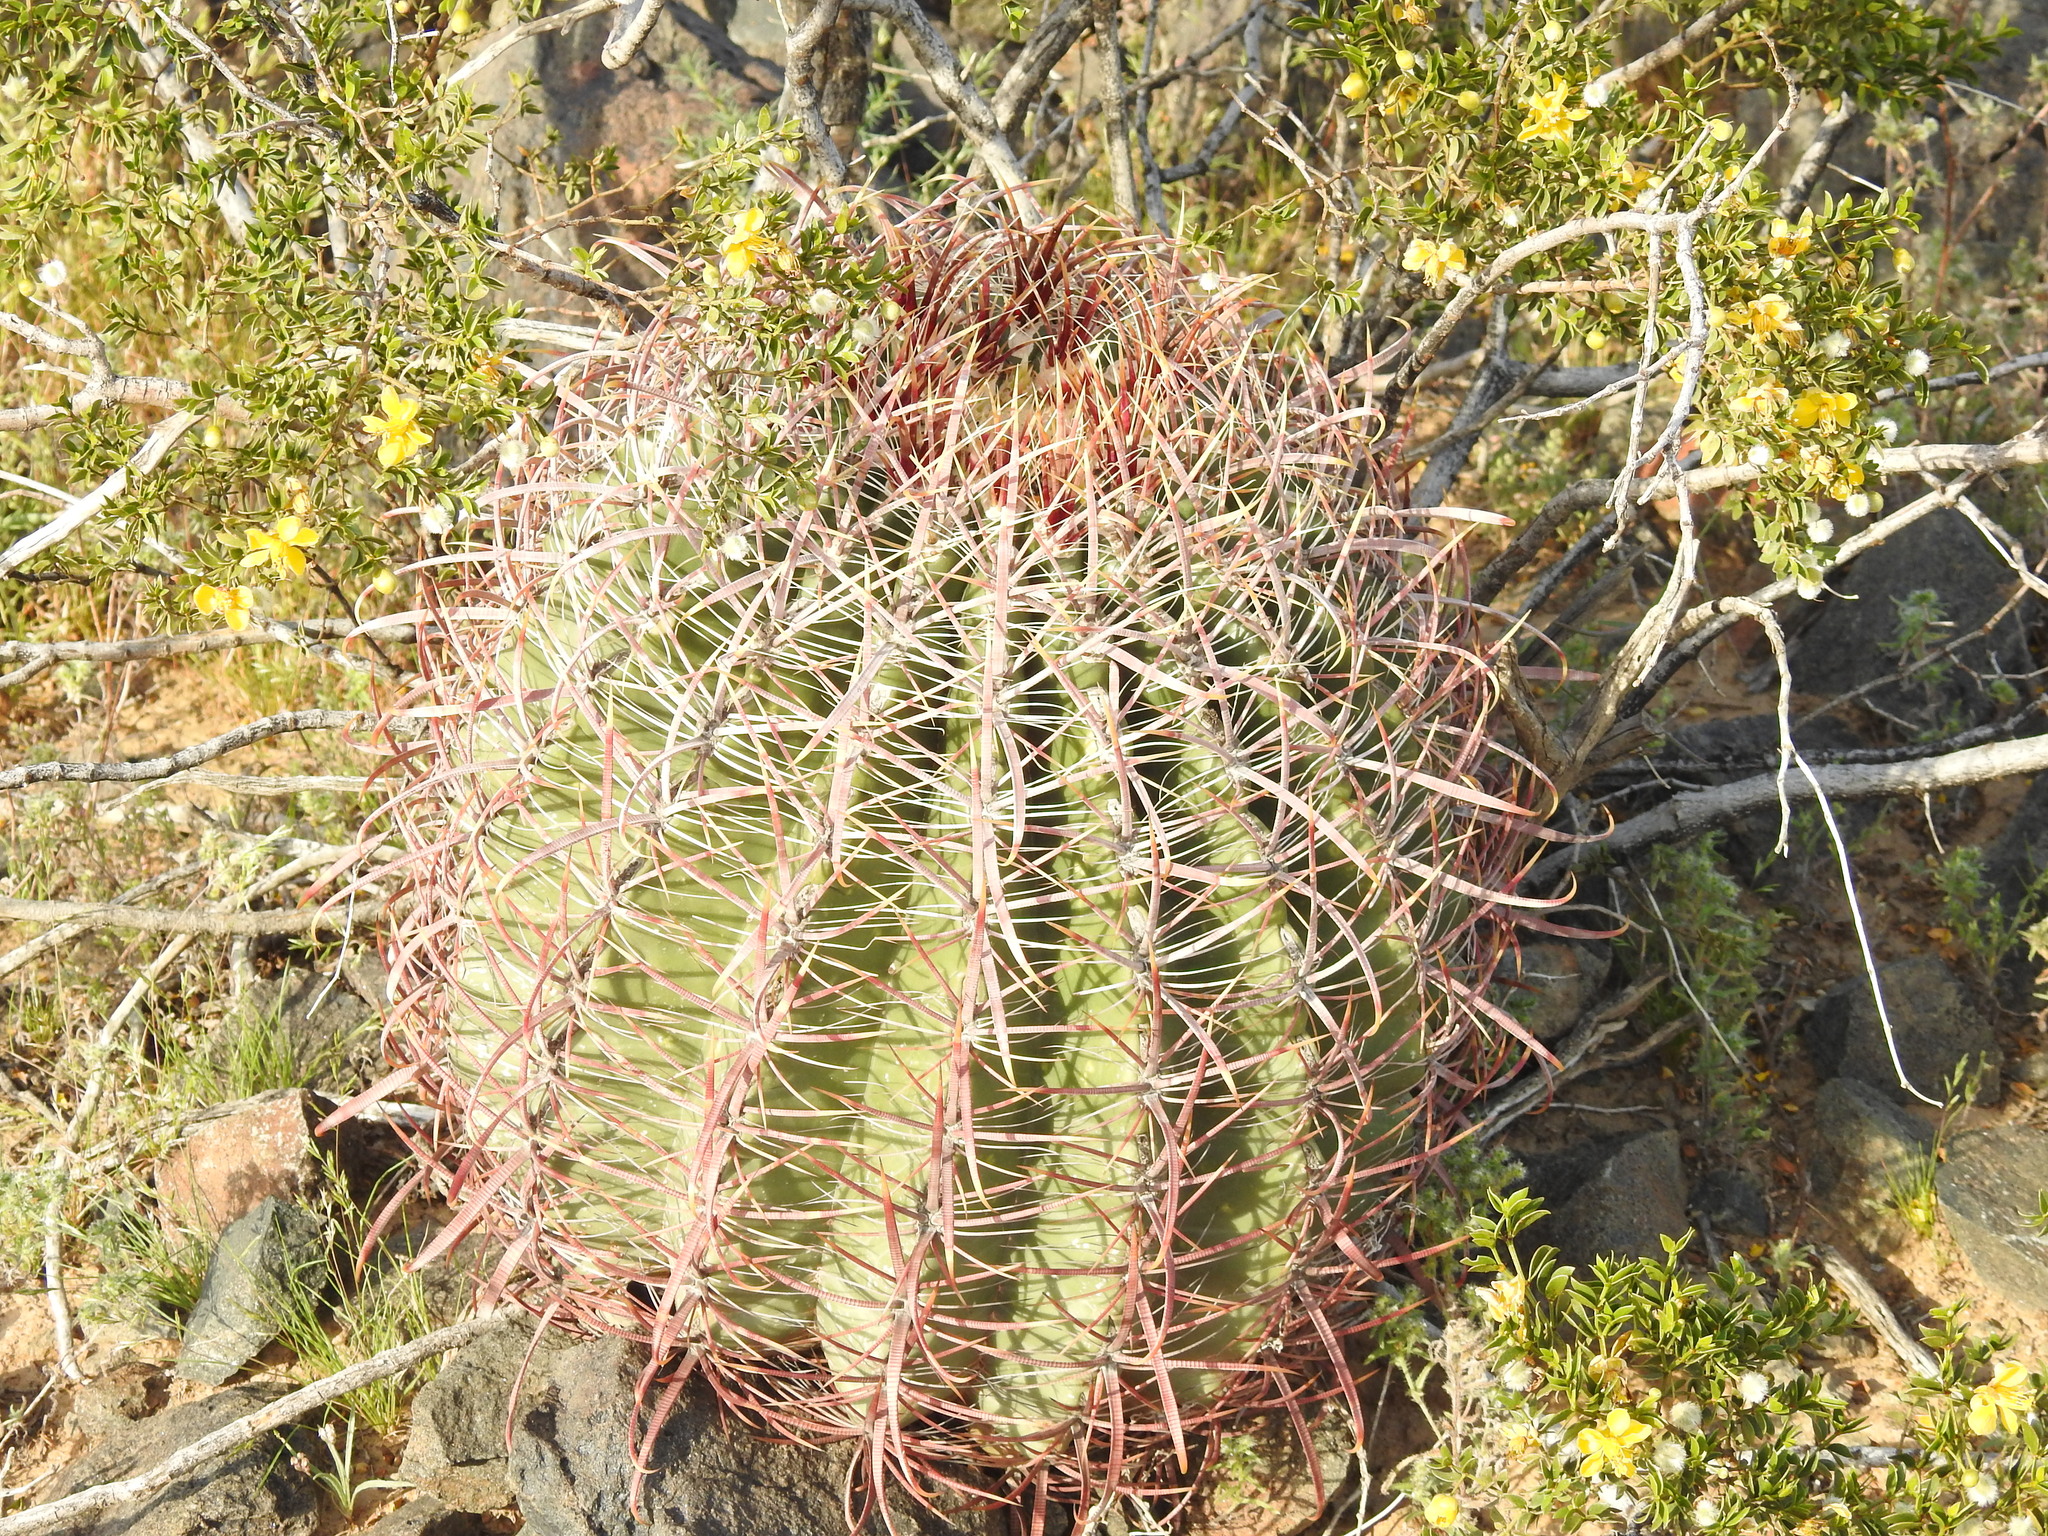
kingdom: Plantae
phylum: Tracheophyta
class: Magnoliopsida
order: Caryophyllales
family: Cactaceae
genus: Ferocactus
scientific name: Ferocactus cylindraceus
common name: California barrel cactus
